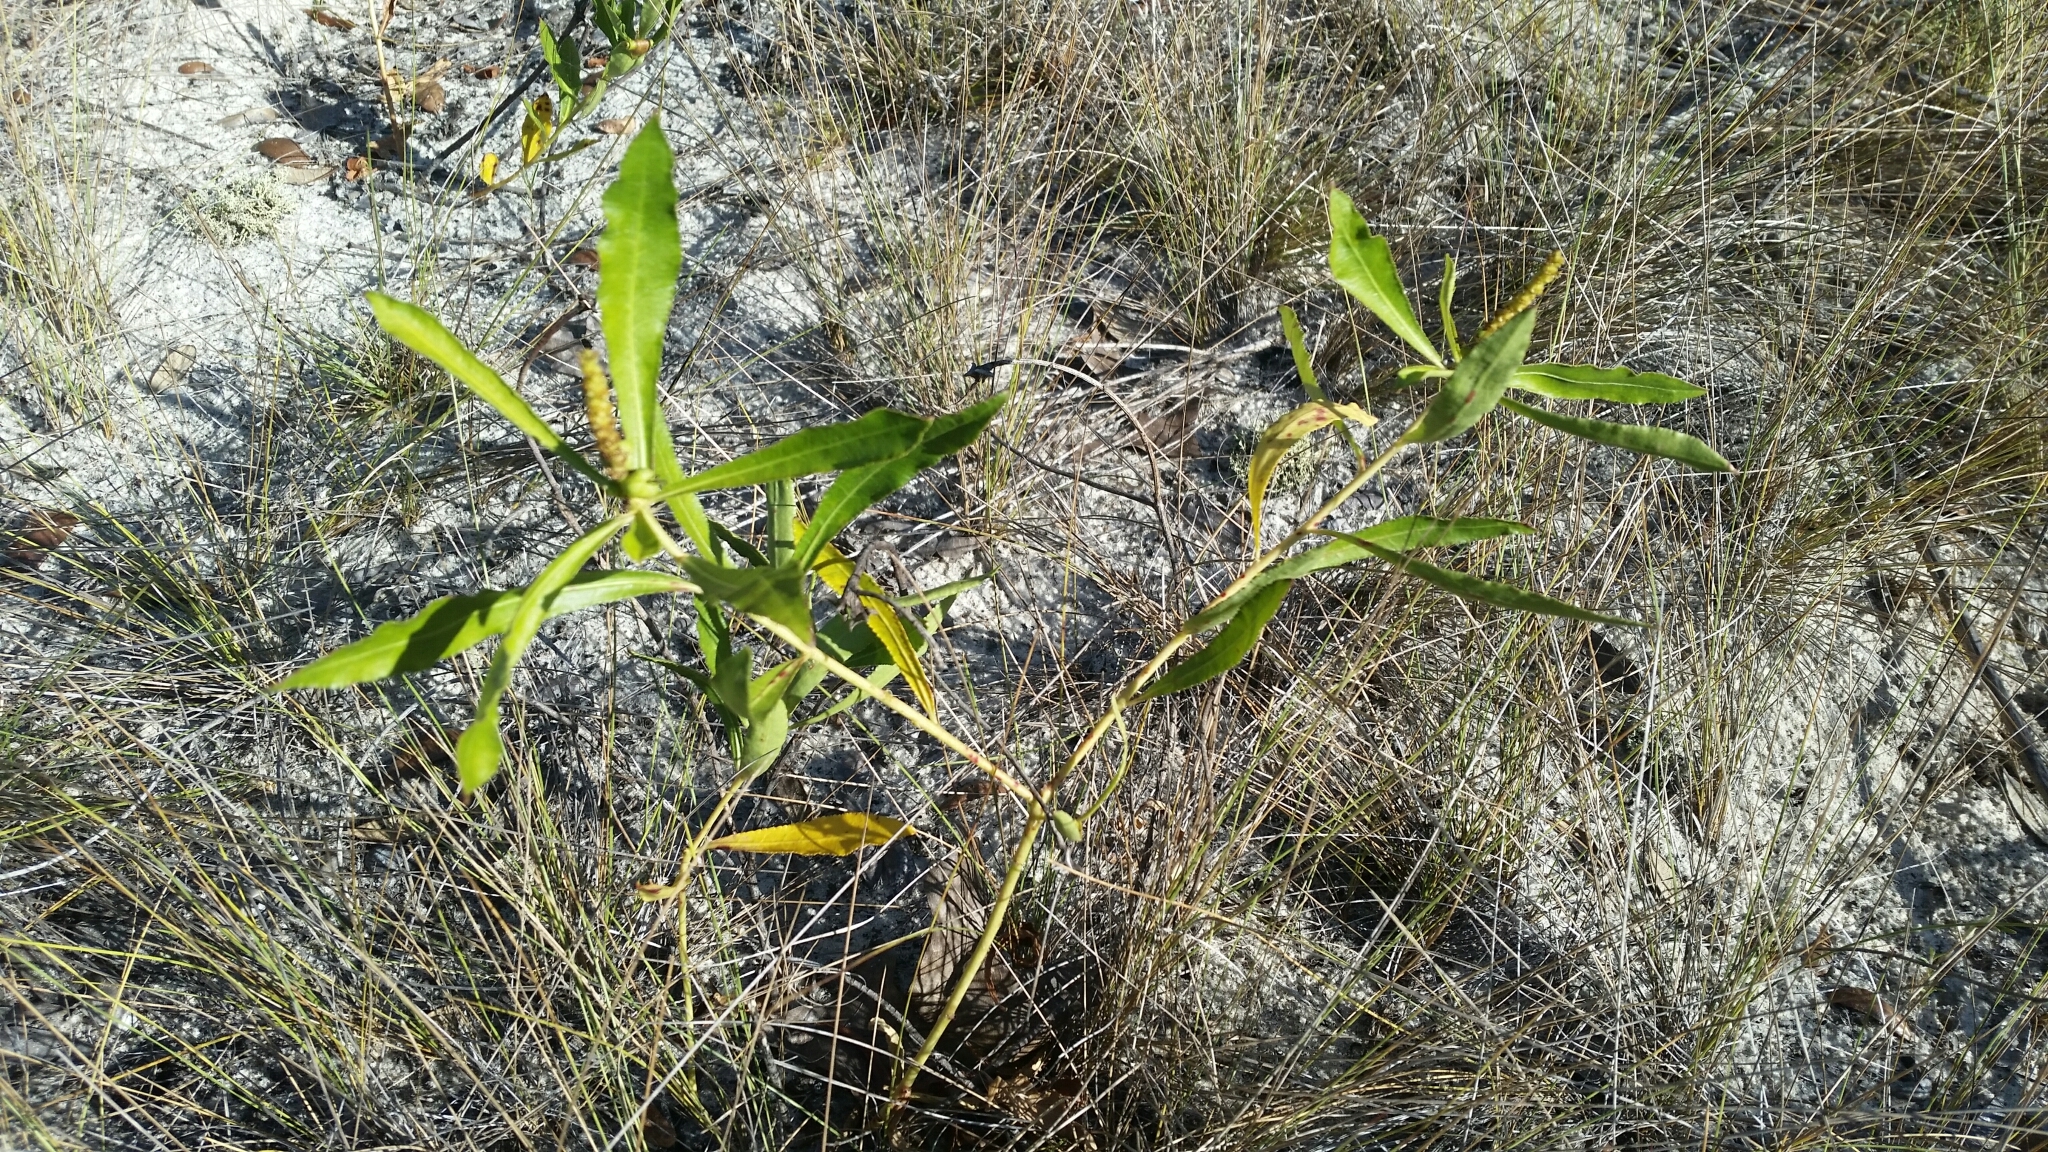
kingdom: Plantae
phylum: Tracheophyta
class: Magnoliopsida
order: Malpighiales
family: Euphorbiaceae
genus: Stillingia
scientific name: Stillingia sylvatica
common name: Queen's-delight
